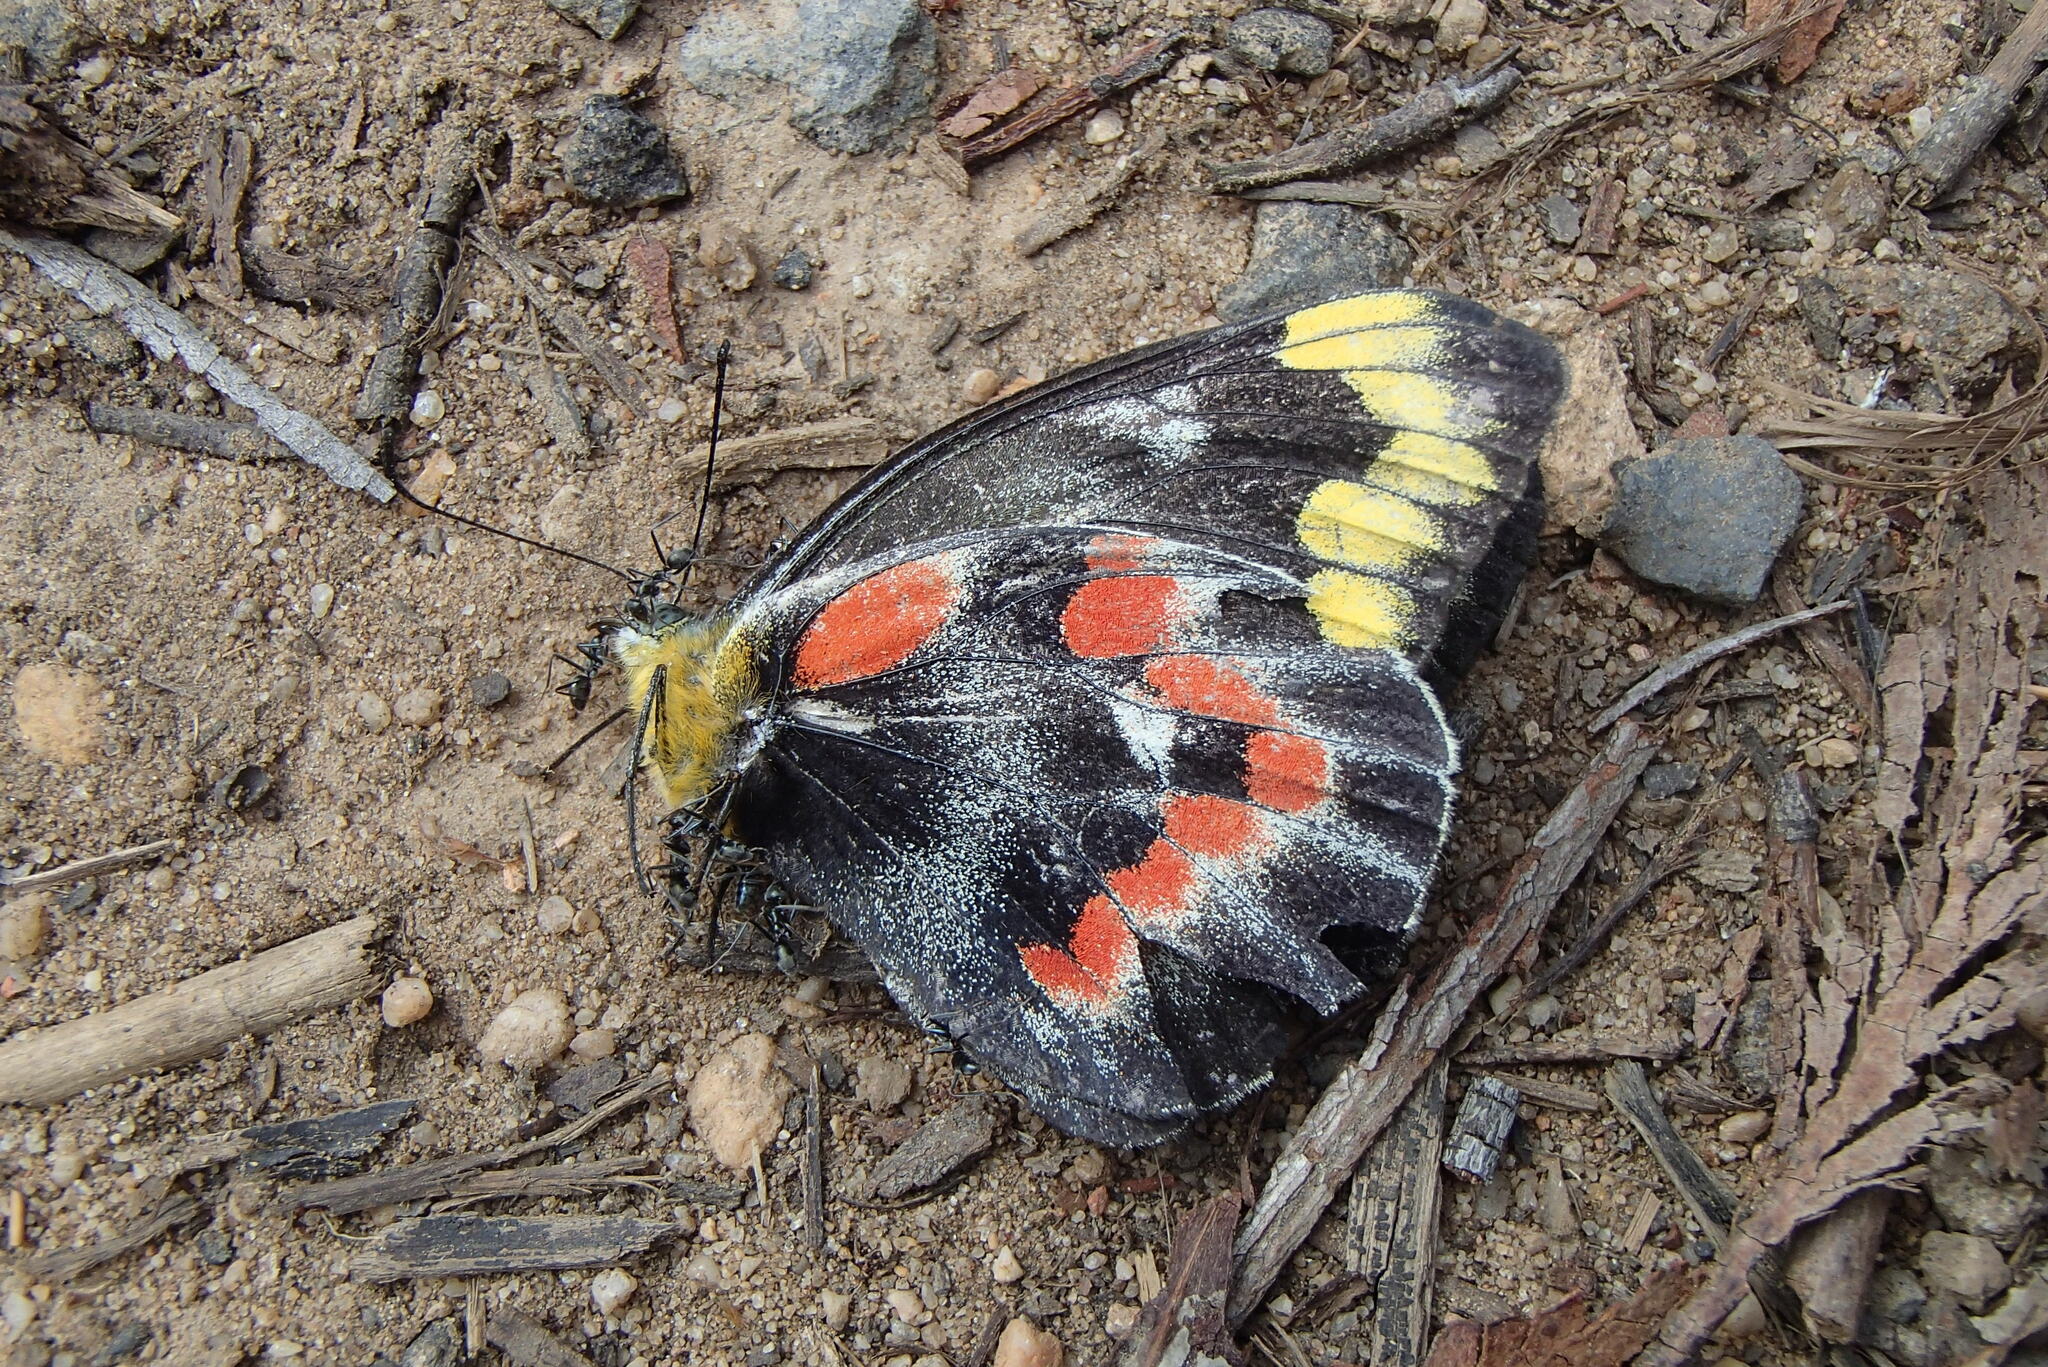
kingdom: Animalia
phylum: Arthropoda
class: Insecta
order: Lepidoptera
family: Pieridae
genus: Delias
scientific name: Delias harpalyce
